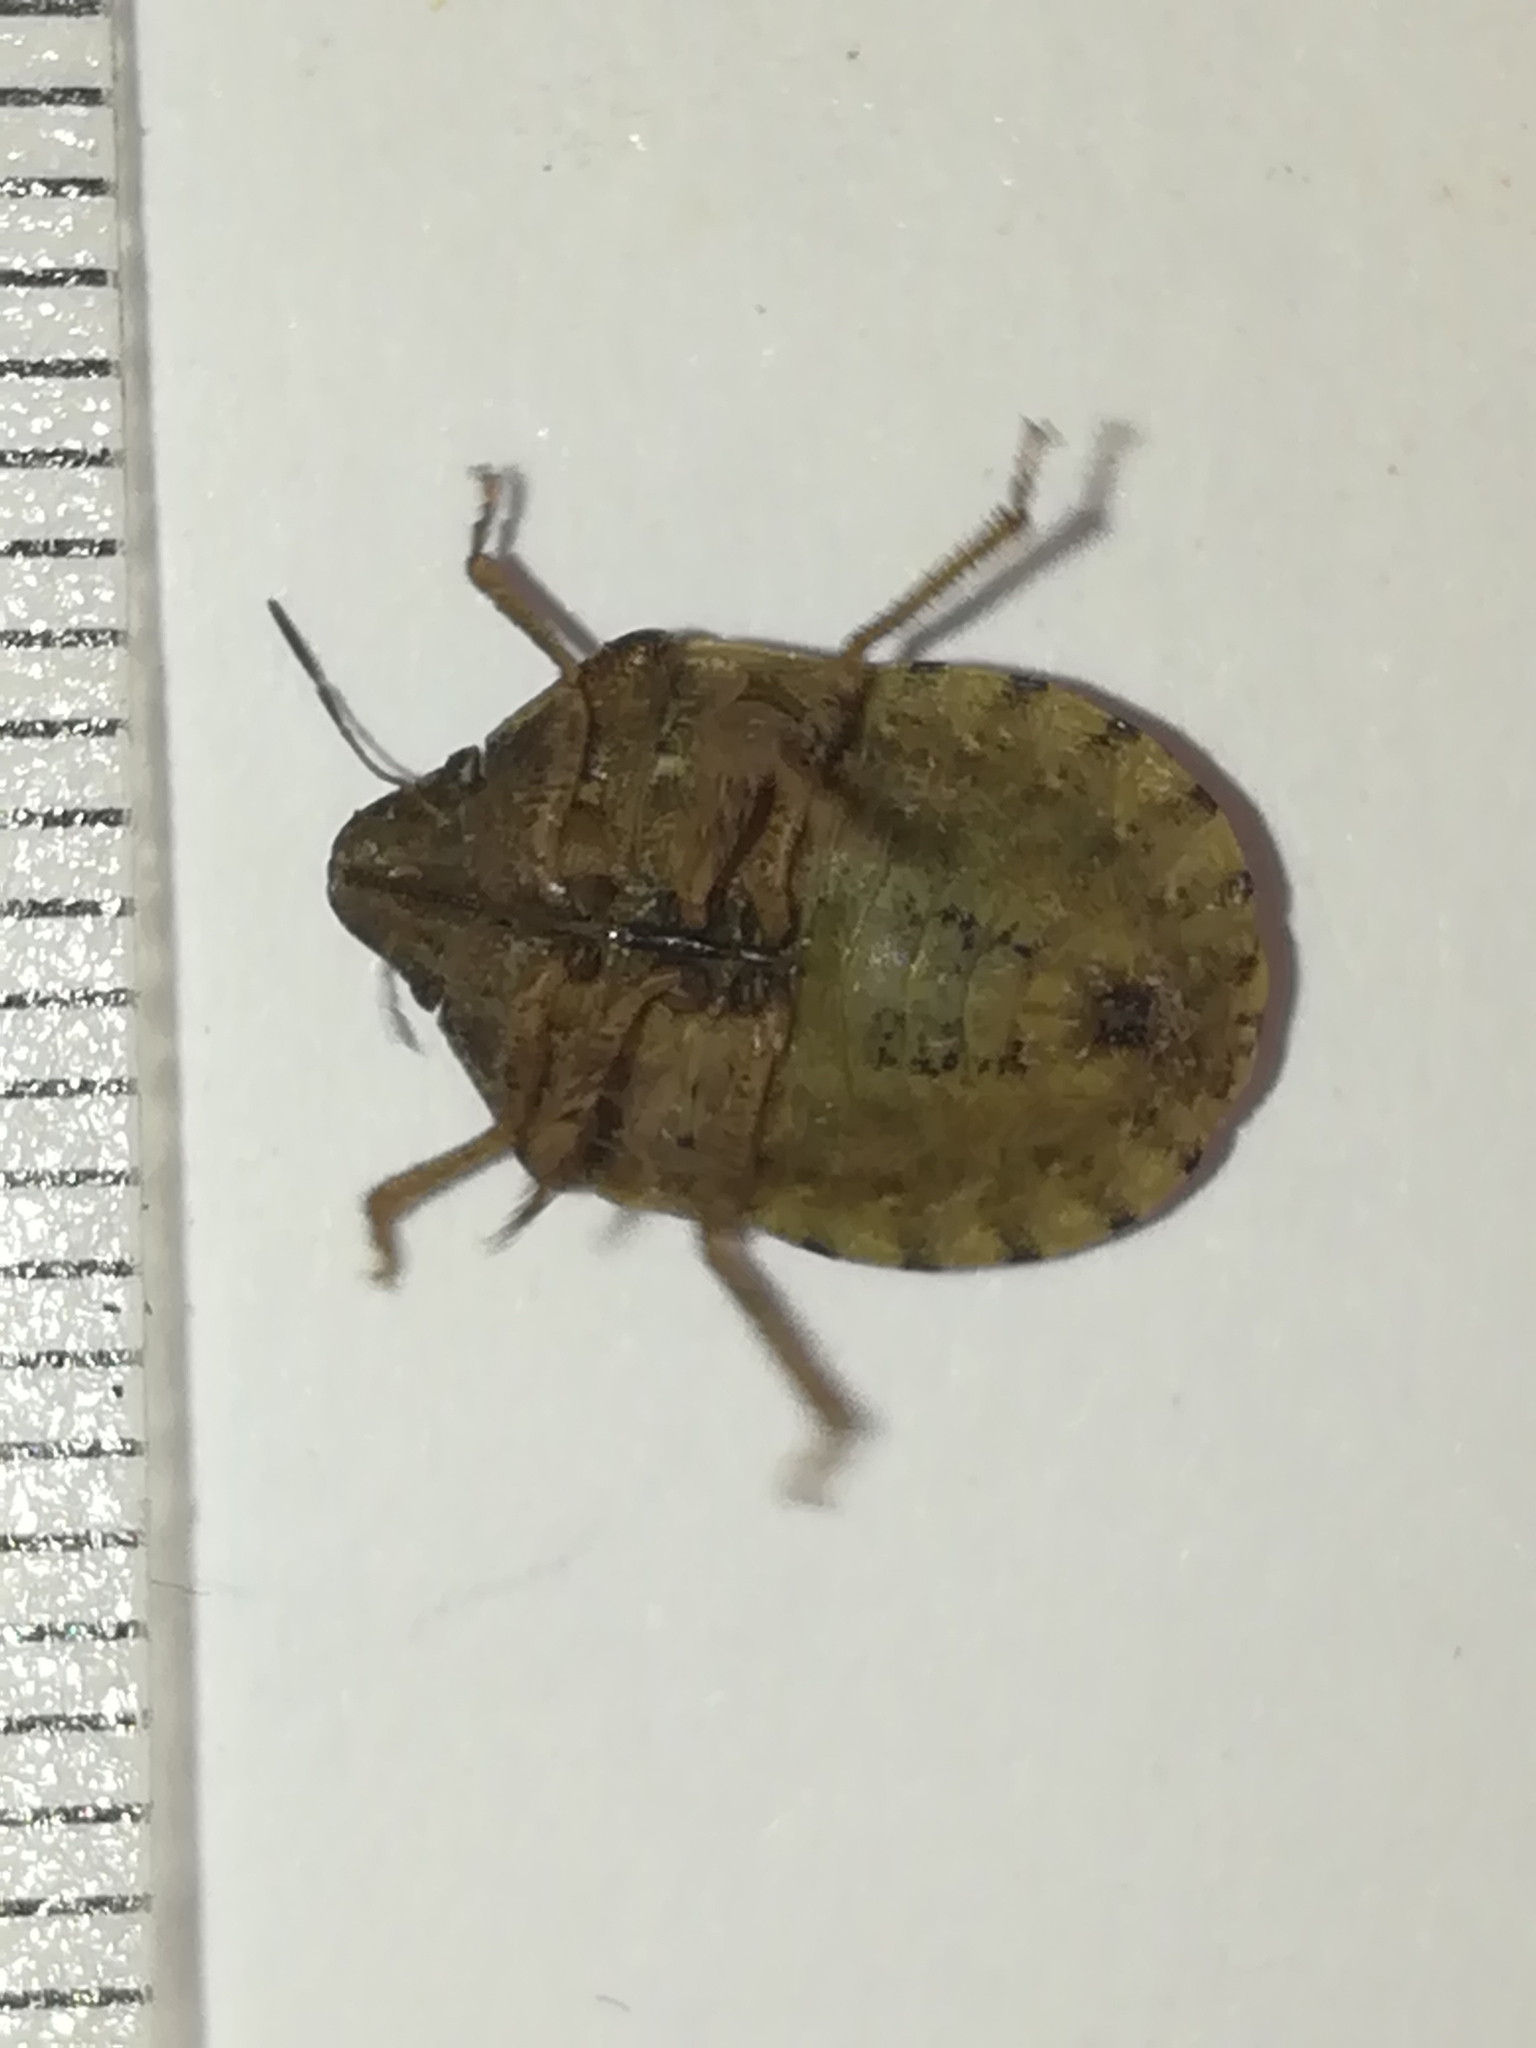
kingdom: Animalia
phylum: Arthropoda
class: Insecta
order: Hemiptera
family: Scutelleridae
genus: Eurygaster
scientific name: Eurygaster maura
